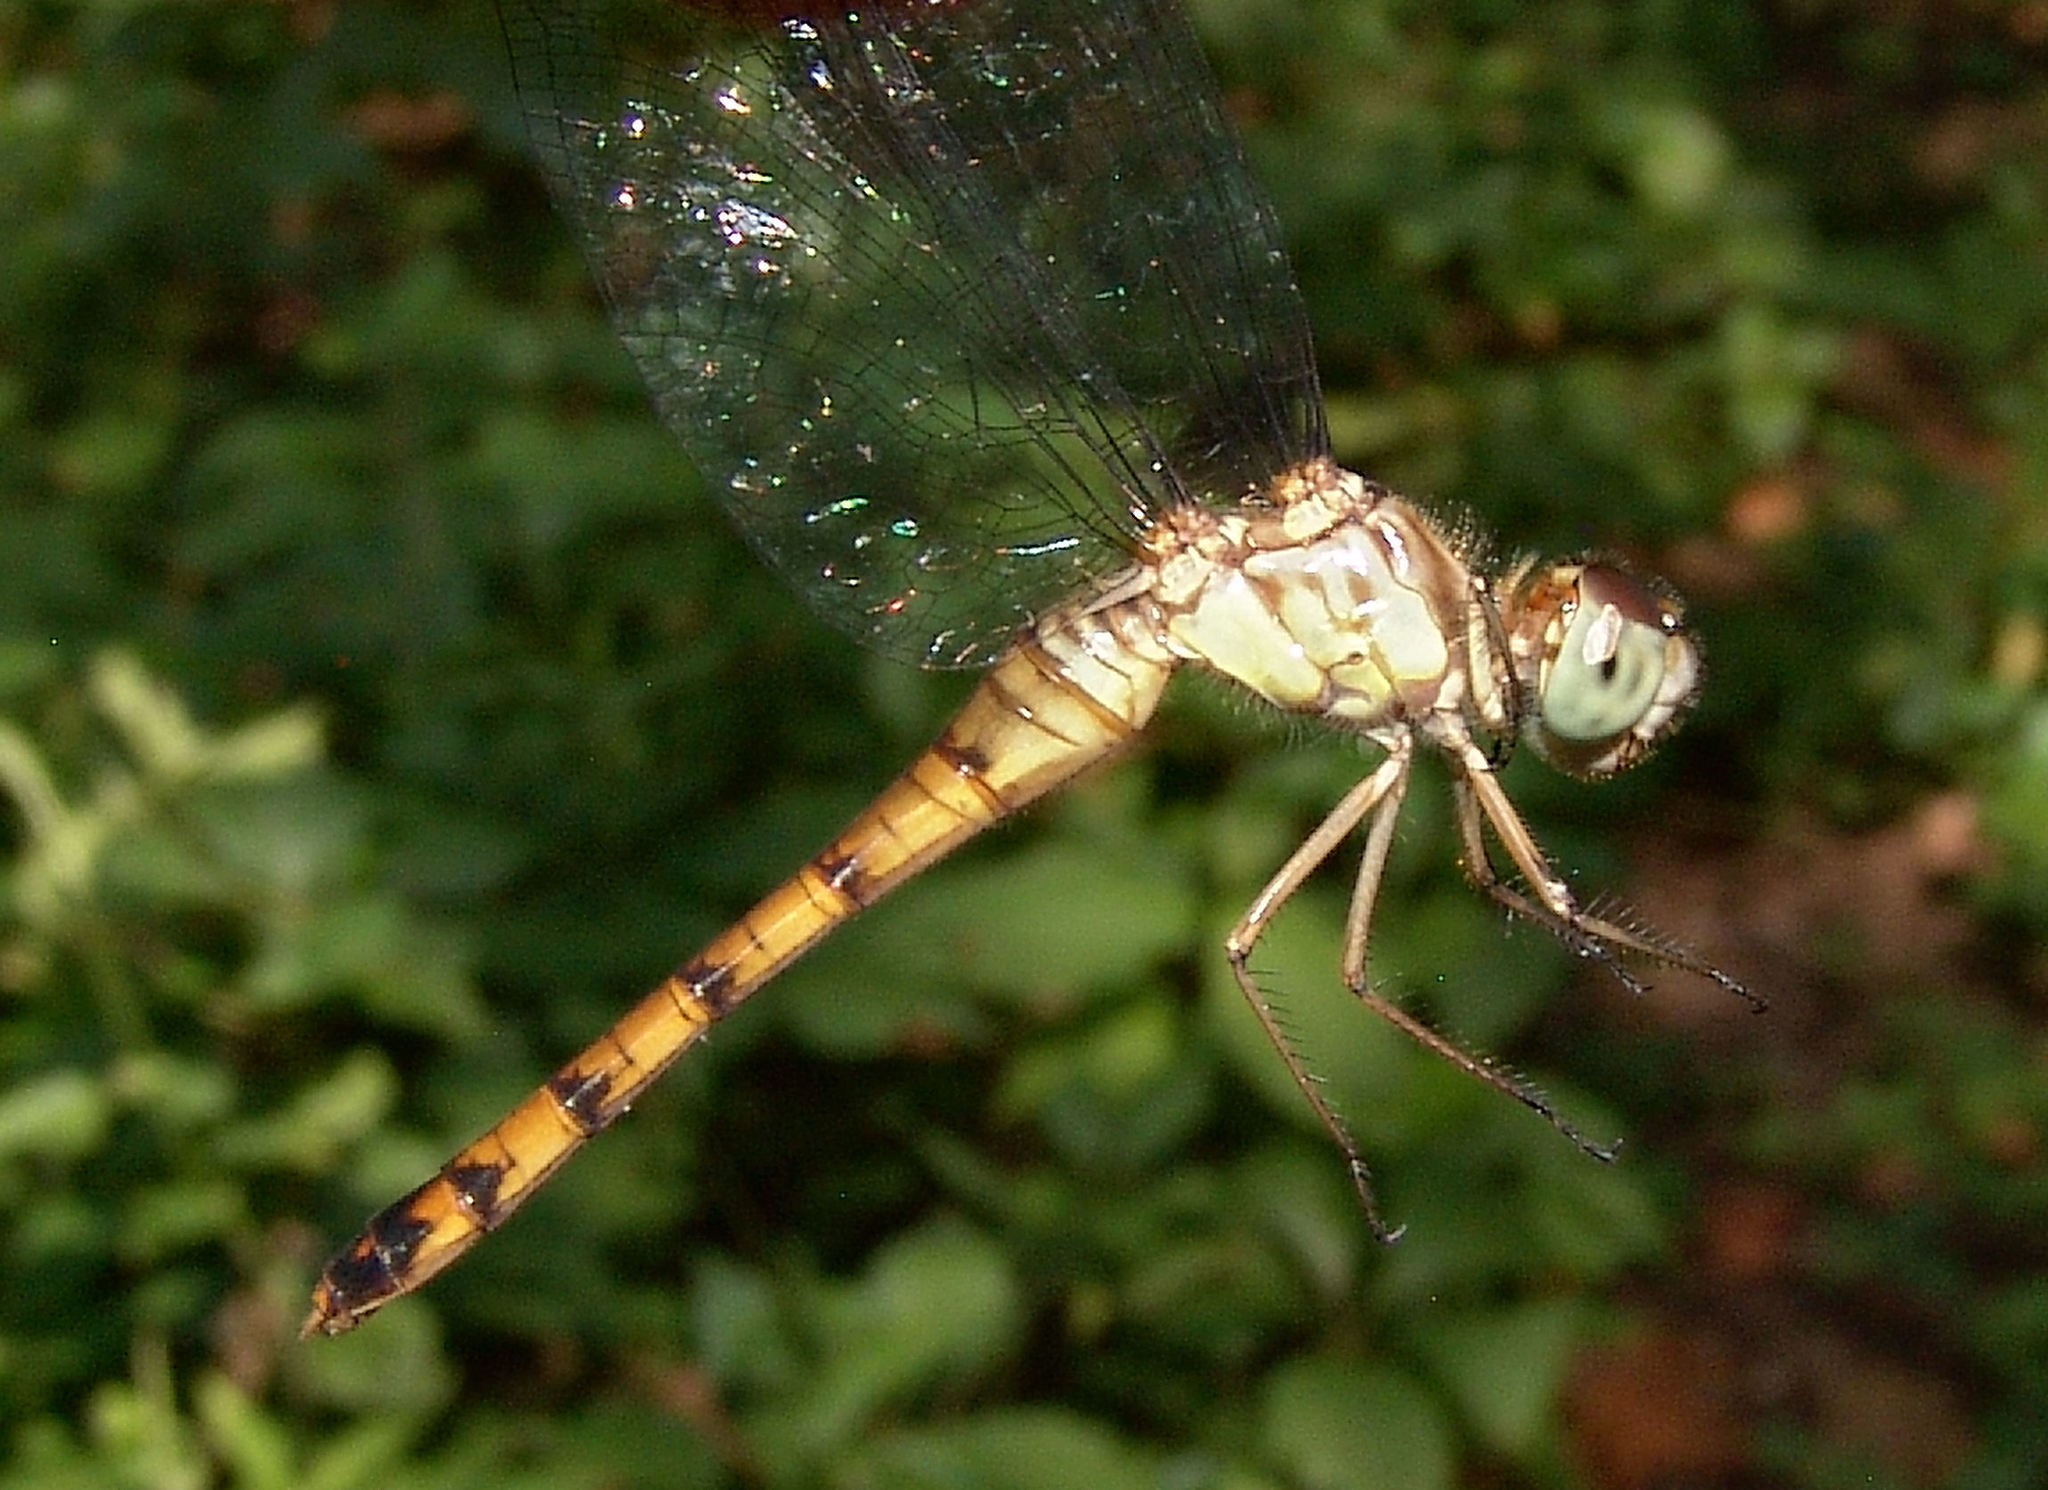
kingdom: Animalia
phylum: Arthropoda
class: Insecta
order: Odonata
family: Libellulidae
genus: Sympetrum
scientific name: Sympetrum ambiguum
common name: Blue-faced meadowhawk
